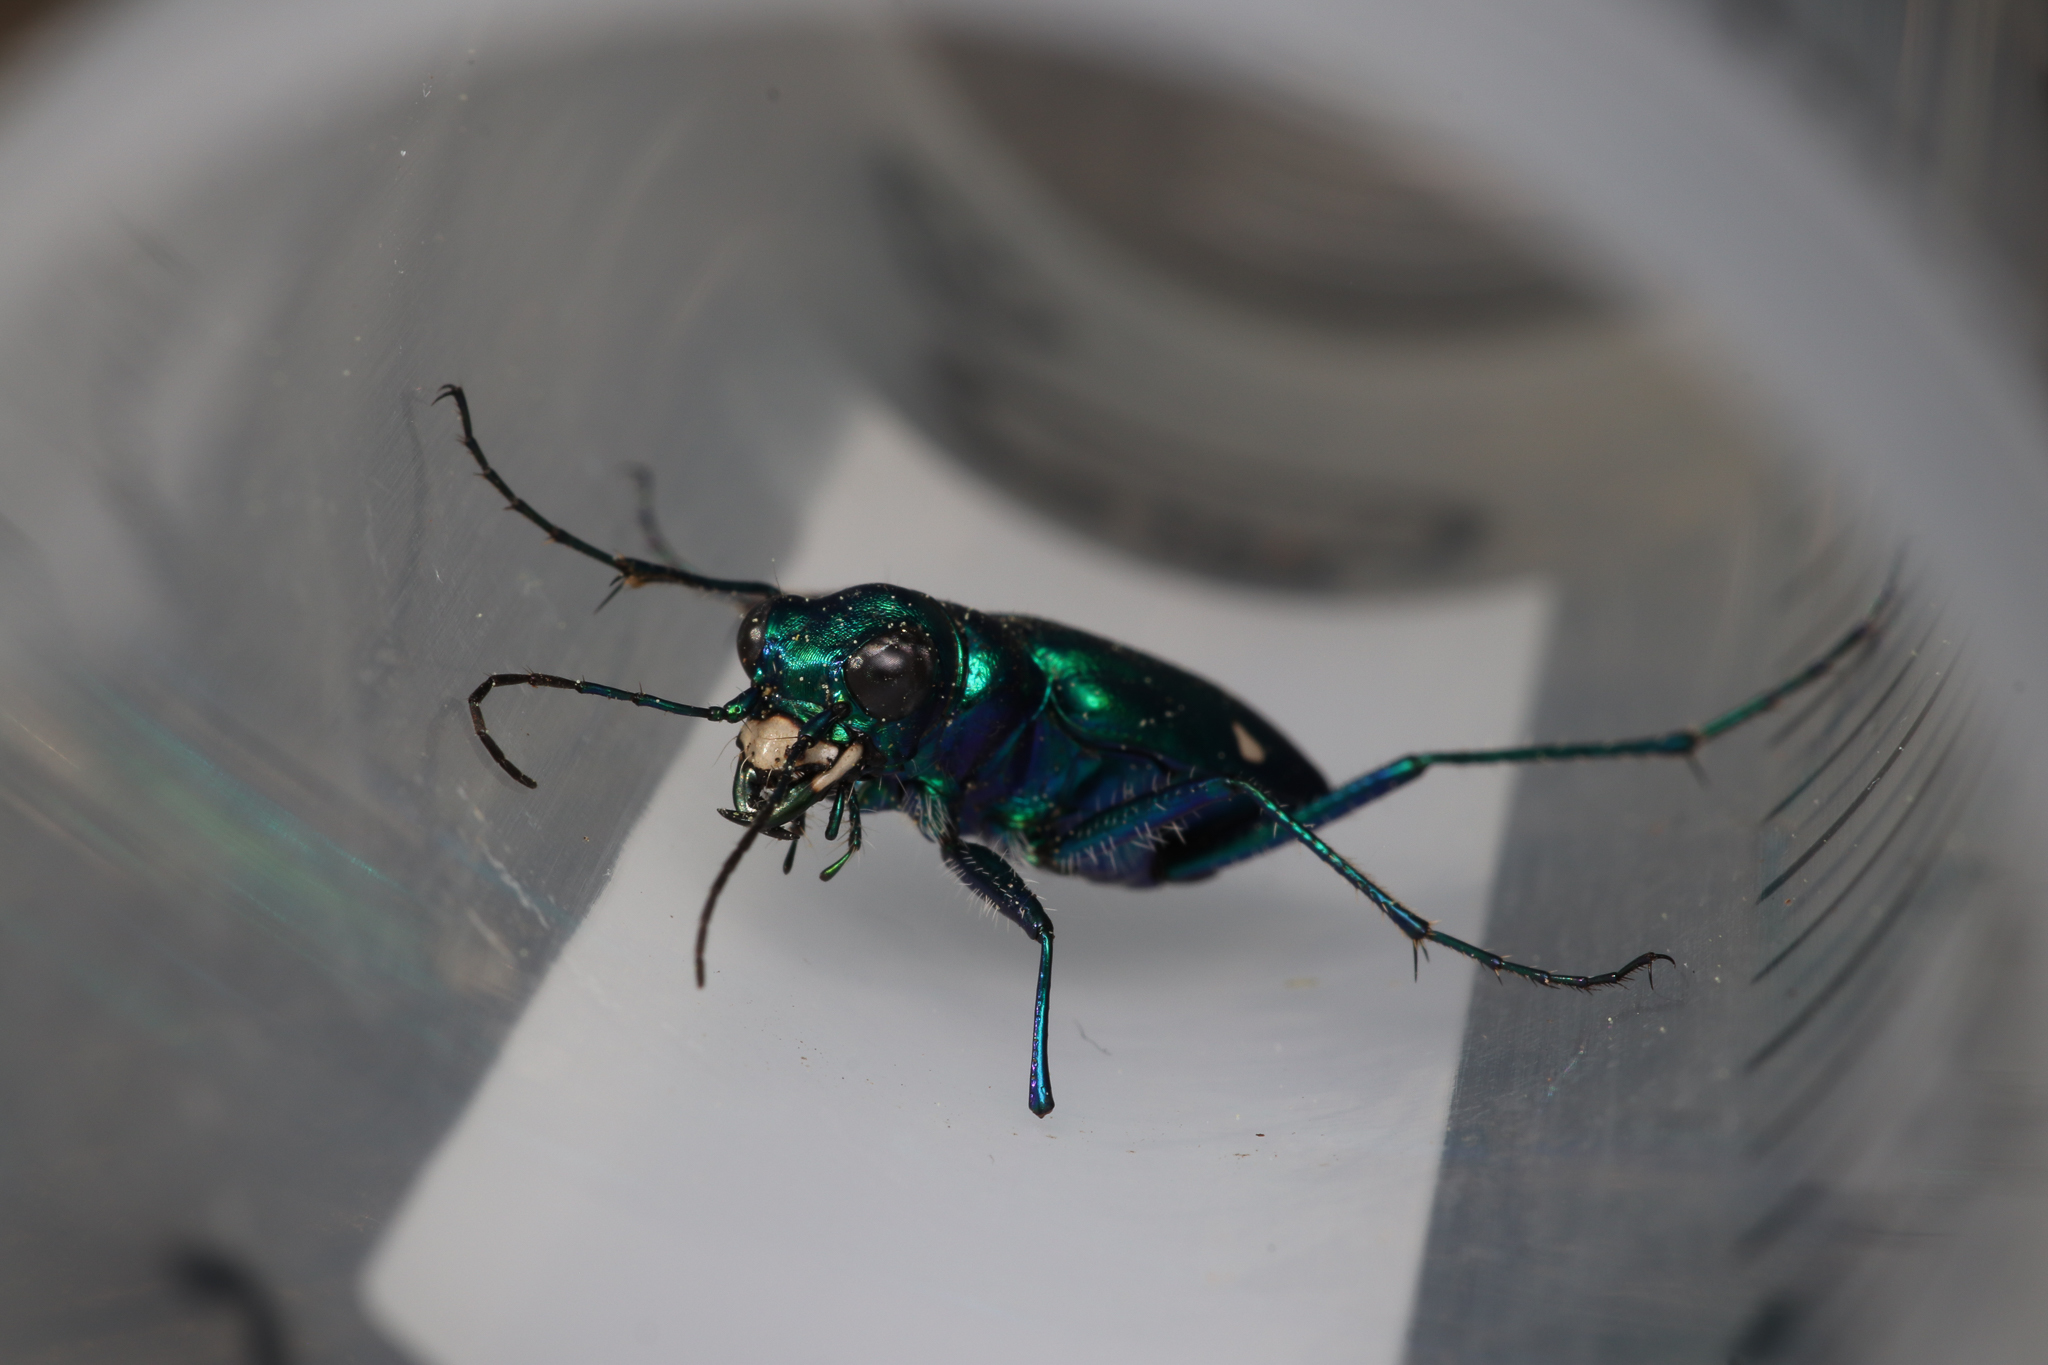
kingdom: Animalia
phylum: Arthropoda
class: Insecta
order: Coleoptera
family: Carabidae
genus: Cicindela
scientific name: Cicindela sexguttata
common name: Six-spotted tiger beetle
